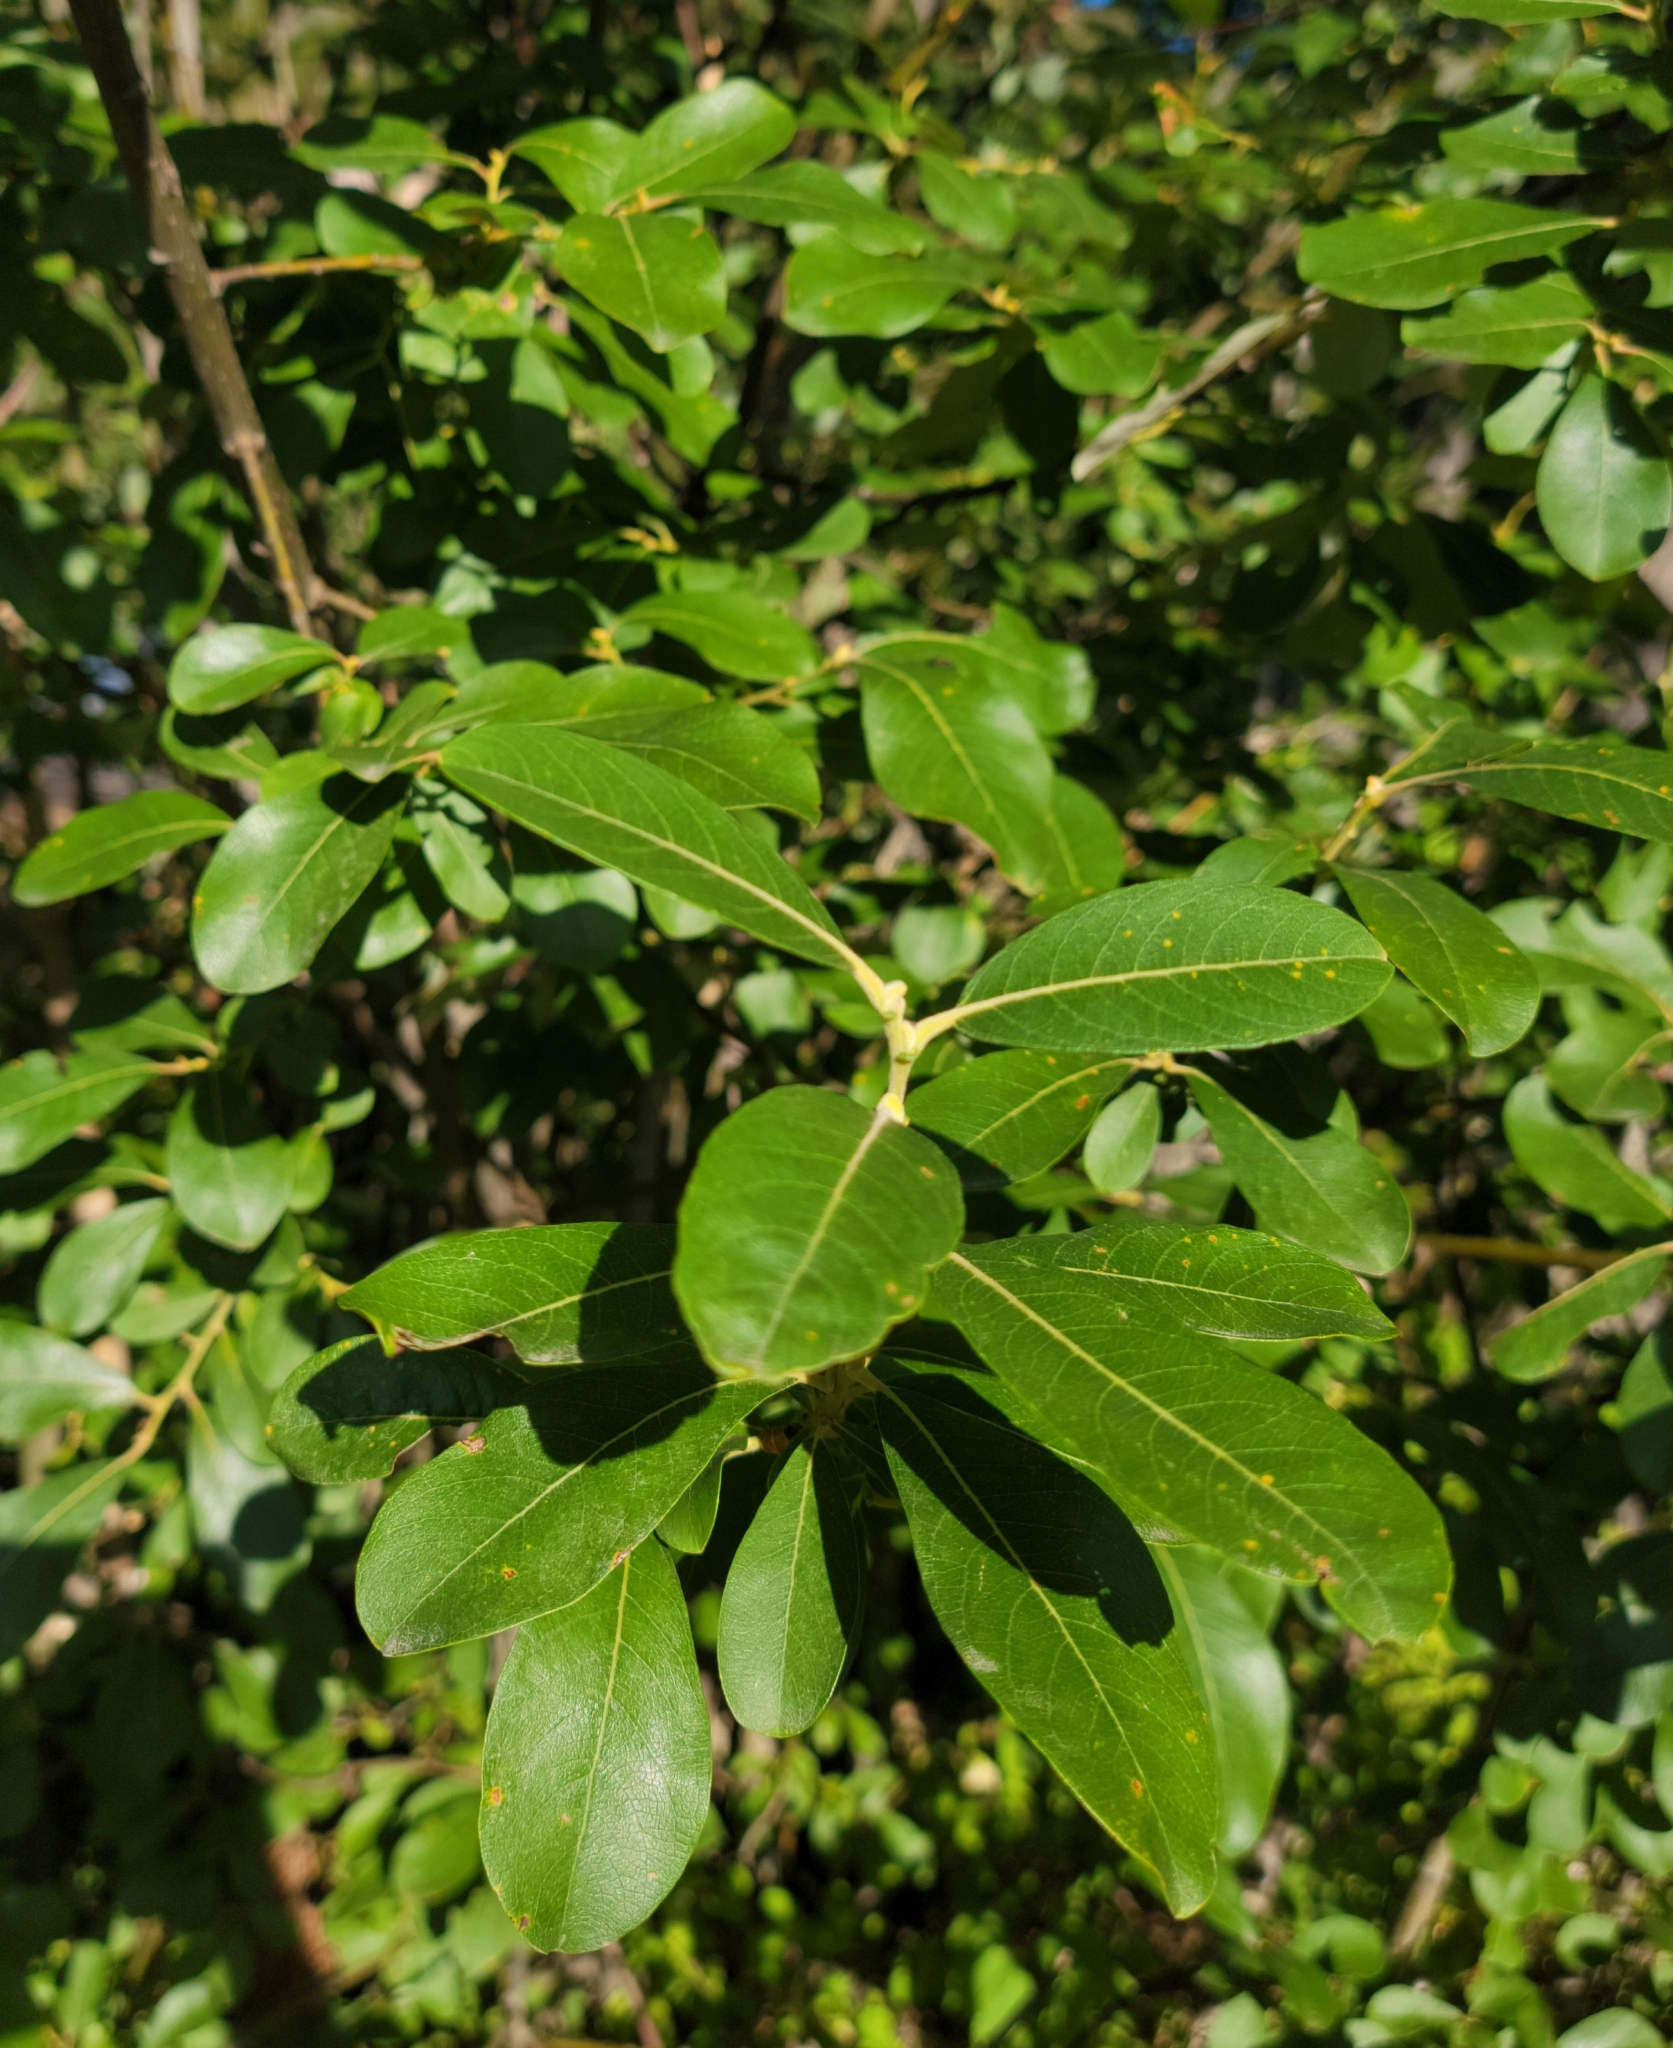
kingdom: Plantae
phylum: Tracheophyta
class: Magnoliopsida
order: Malpighiales
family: Salicaceae
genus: Salix
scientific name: Salix scouleriana
